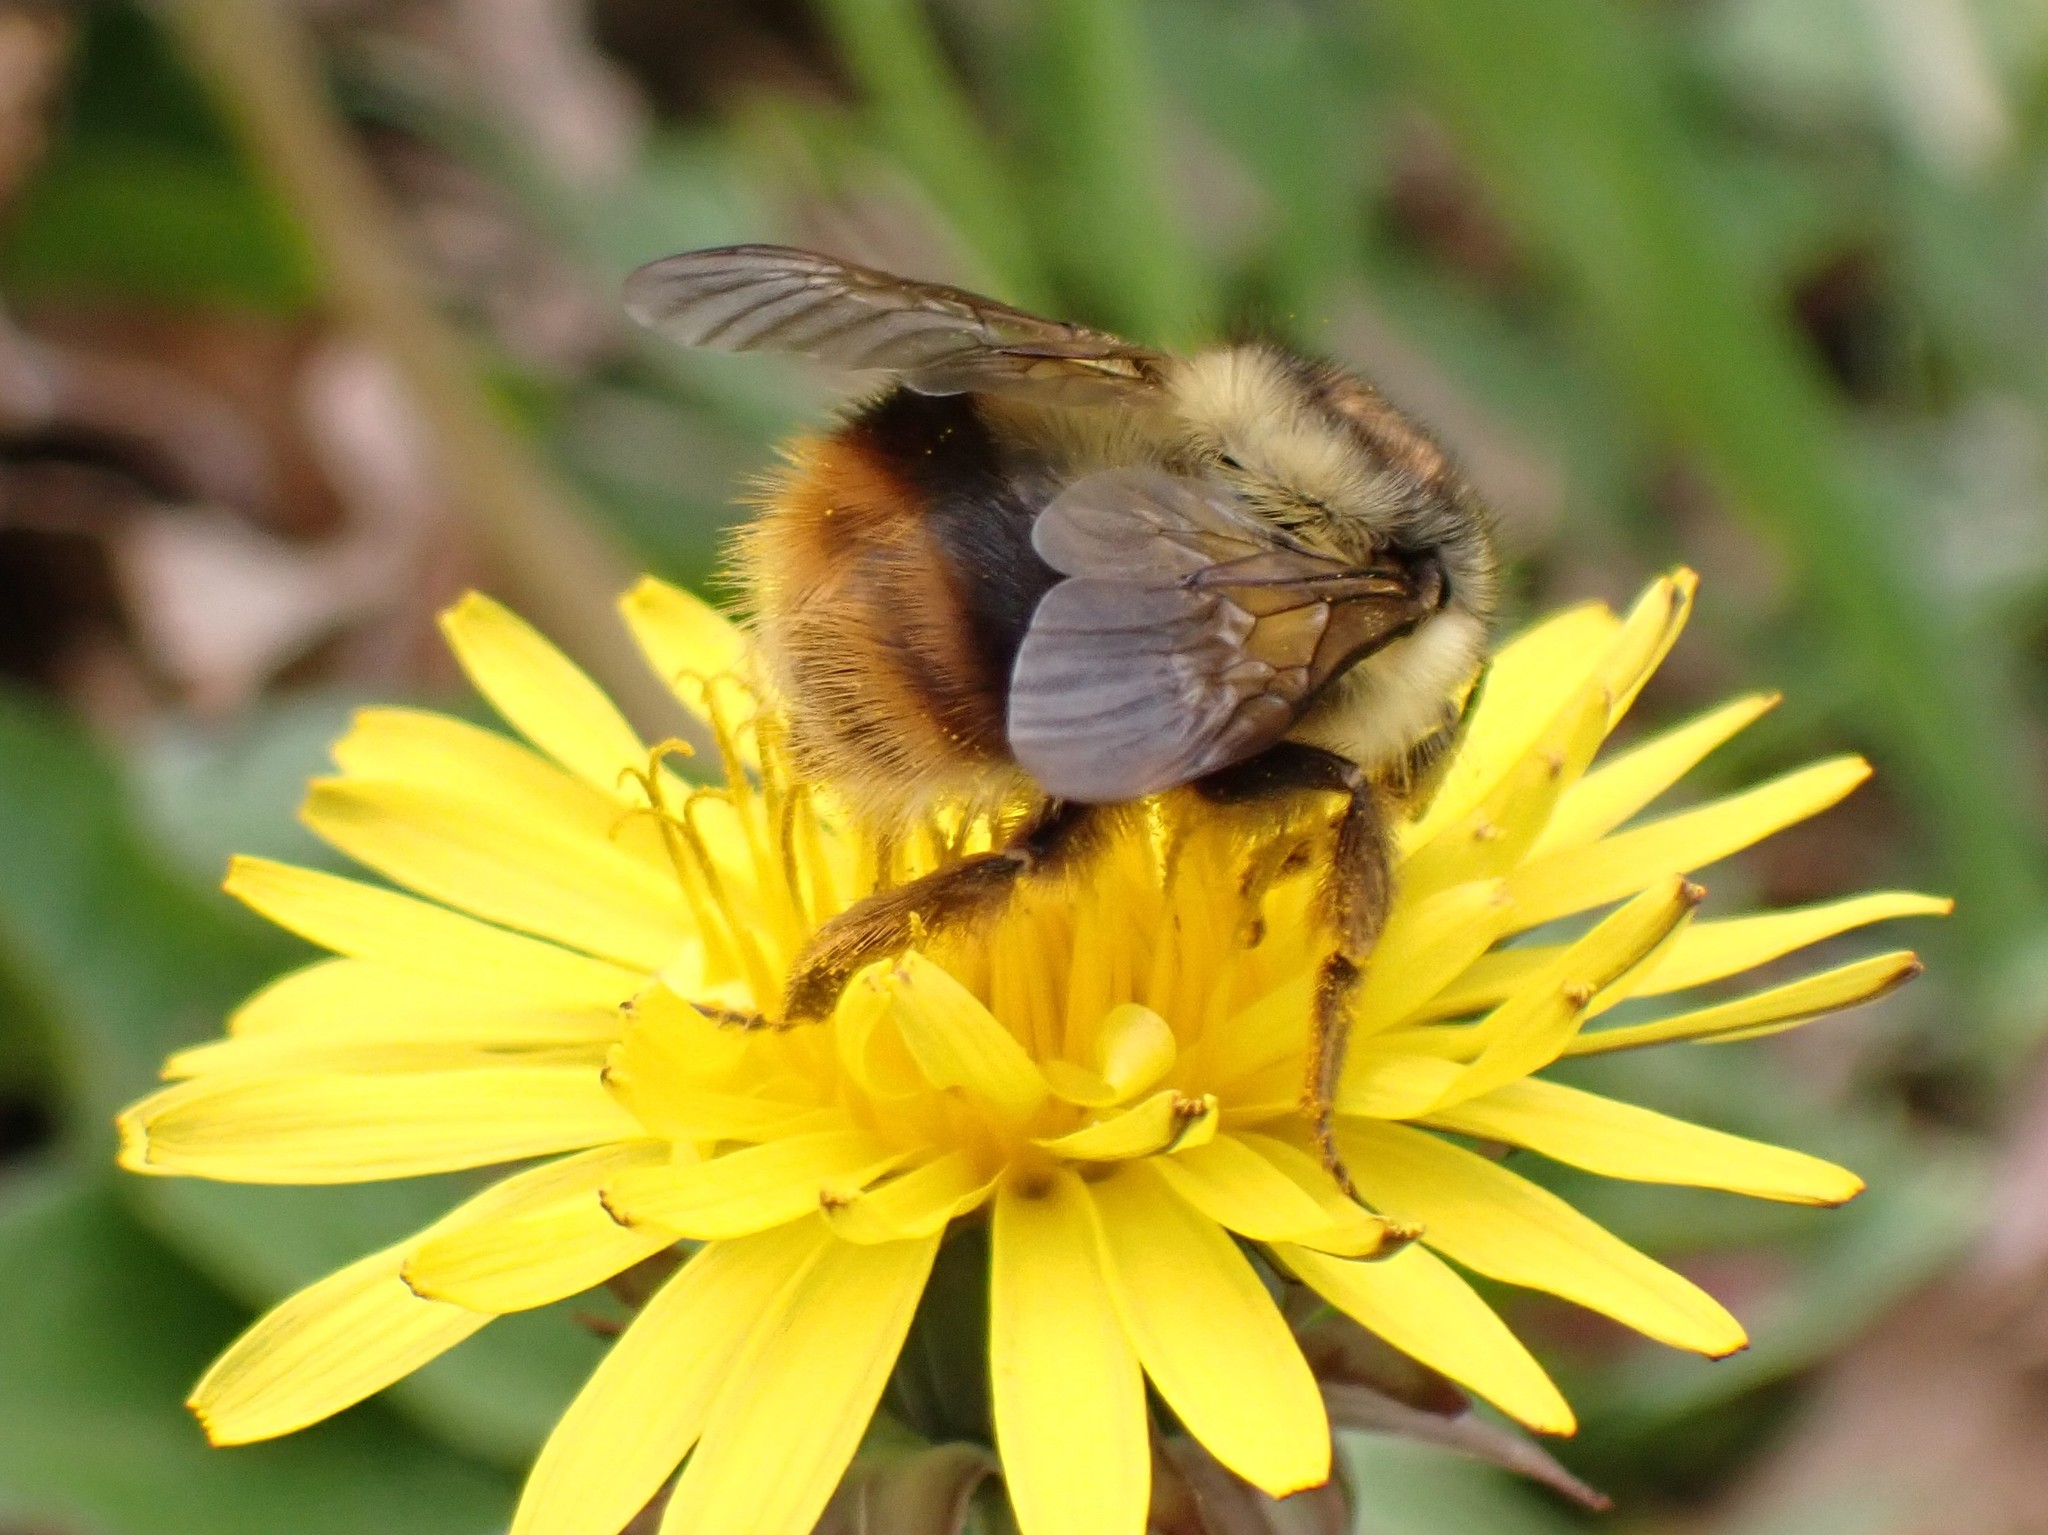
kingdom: Animalia
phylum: Arthropoda
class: Insecta
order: Hymenoptera
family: Apidae
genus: Bombus
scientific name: Bombus mixtus
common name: Fuzzy-horned bumble bee
